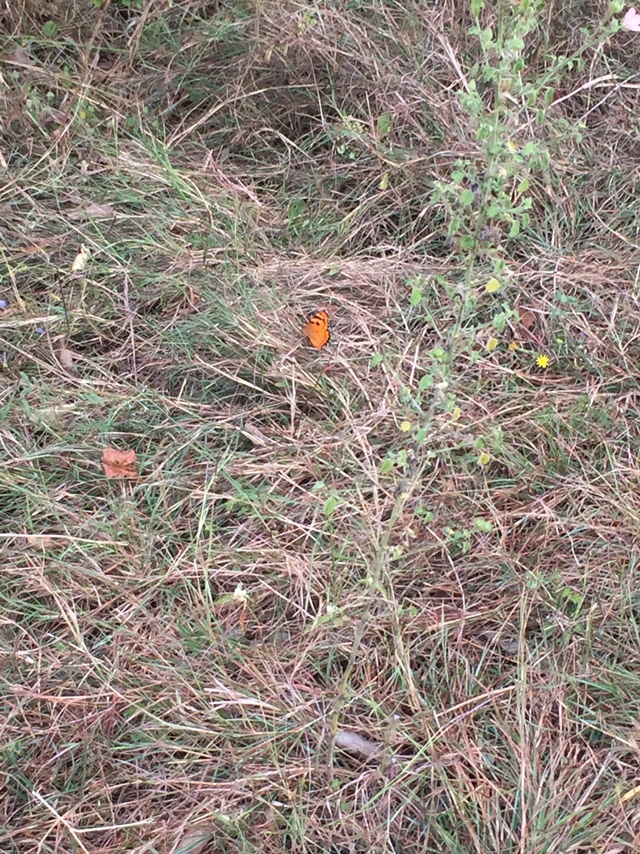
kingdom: Animalia
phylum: Arthropoda
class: Insecta
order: Lepidoptera
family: Nymphalidae
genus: Euthalia
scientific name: Euthalia nais
